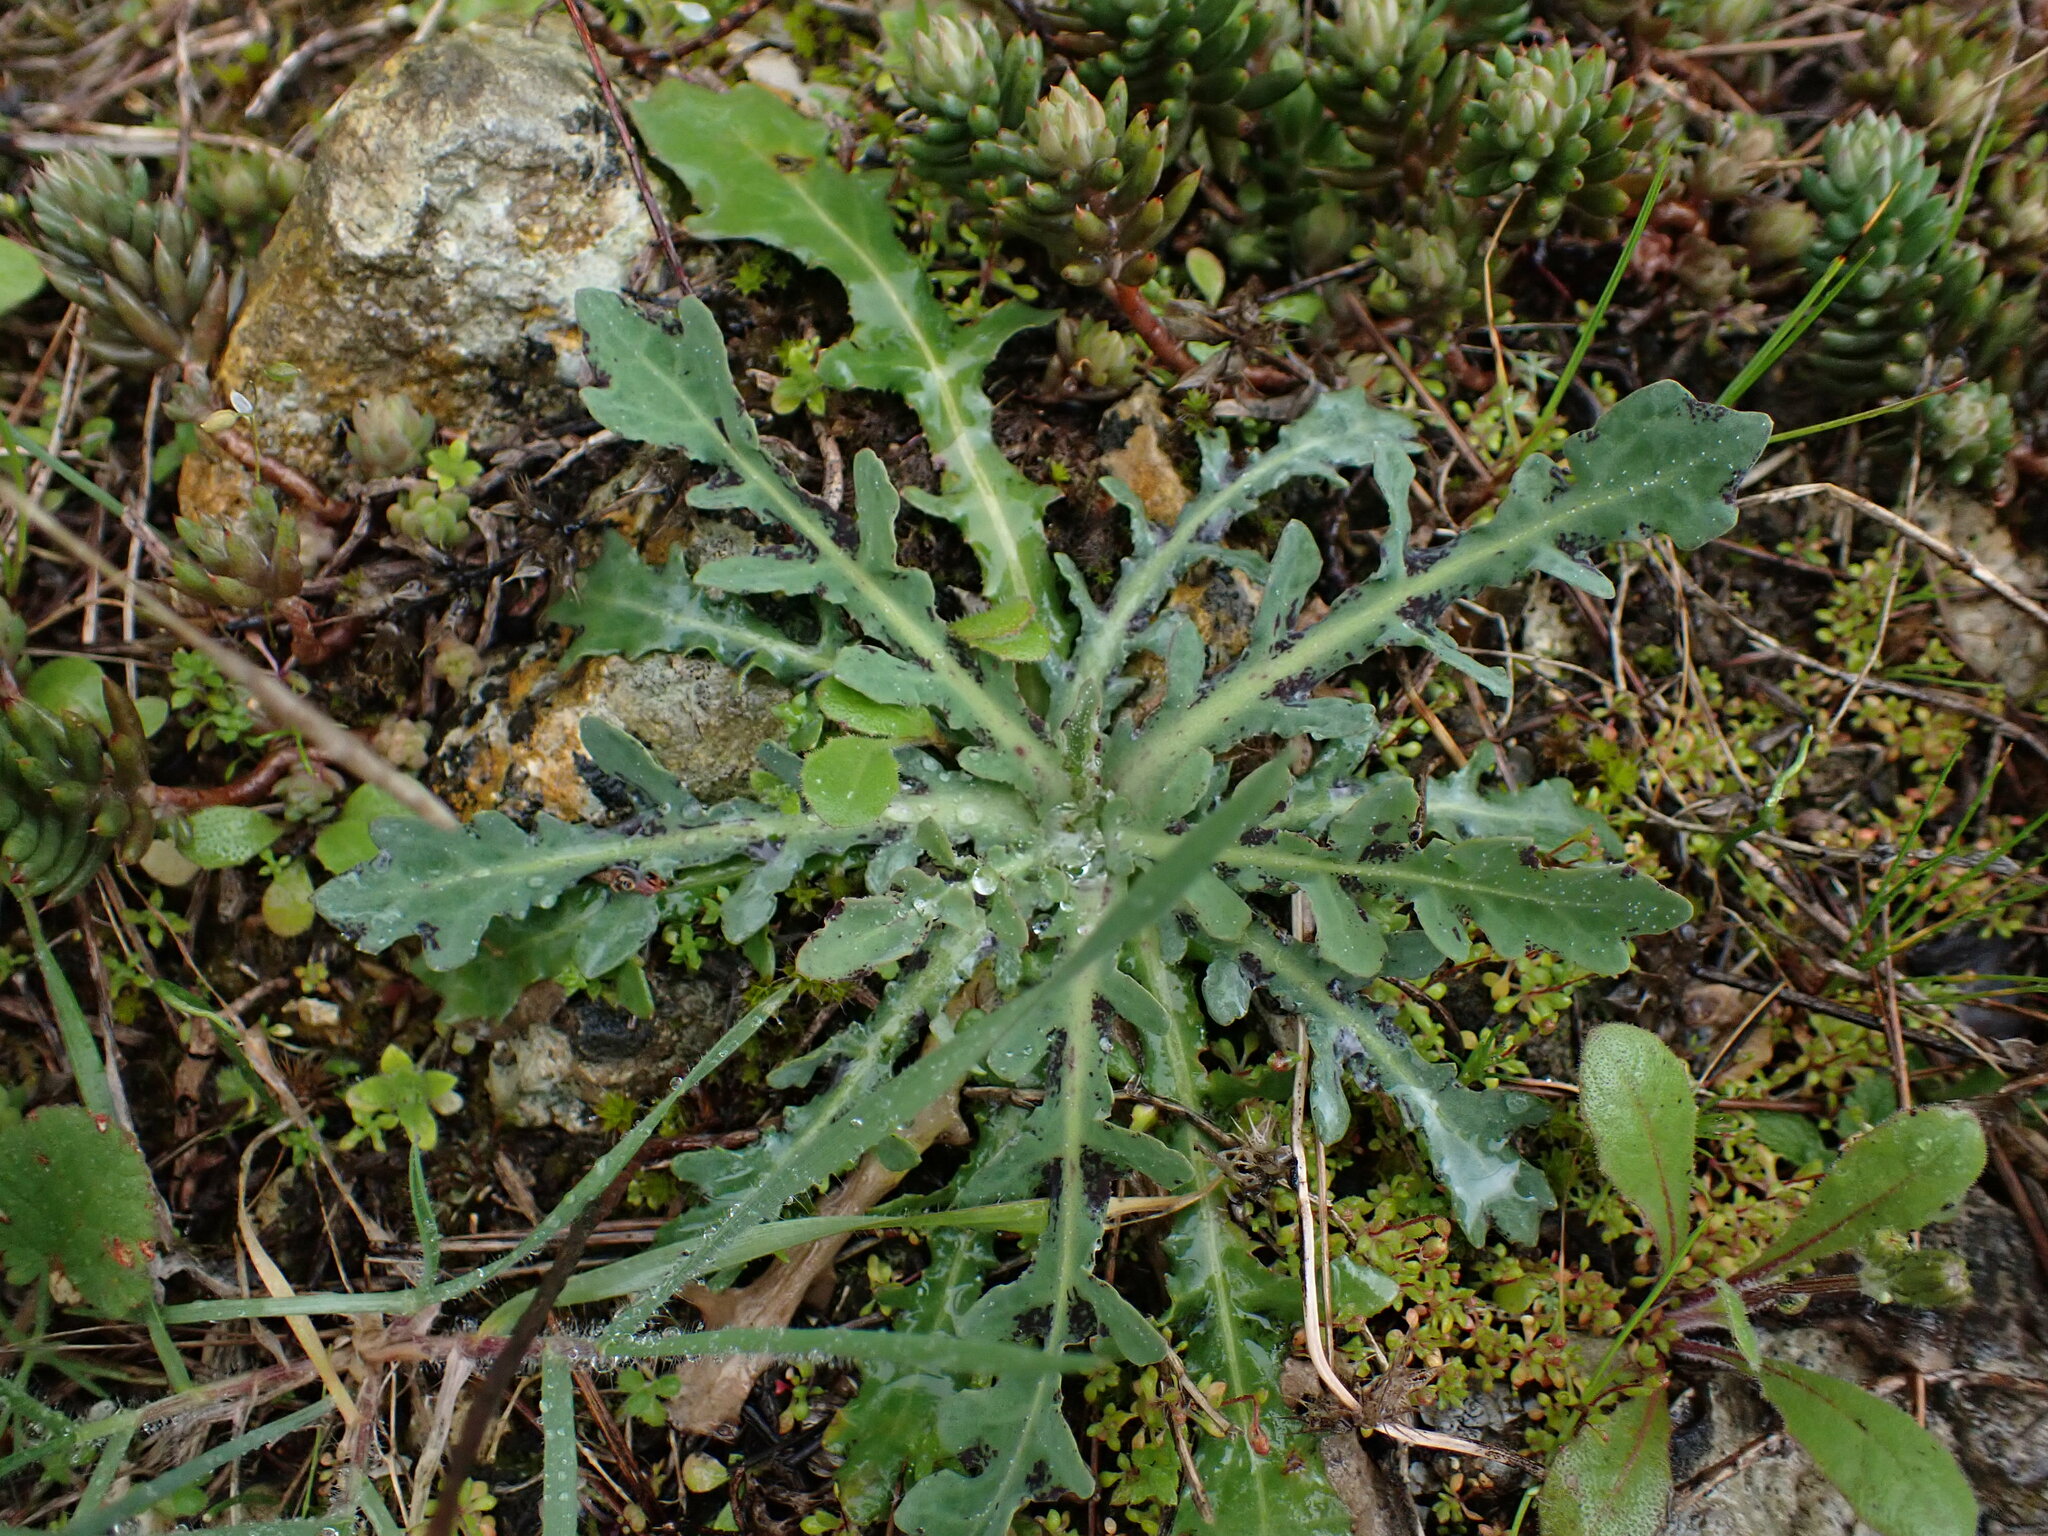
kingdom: Plantae
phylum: Tracheophyta
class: Magnoliopsida
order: Asterales
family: Asteraceae
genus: Reichardia
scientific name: Reichardia picroides
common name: Common brighteyes
